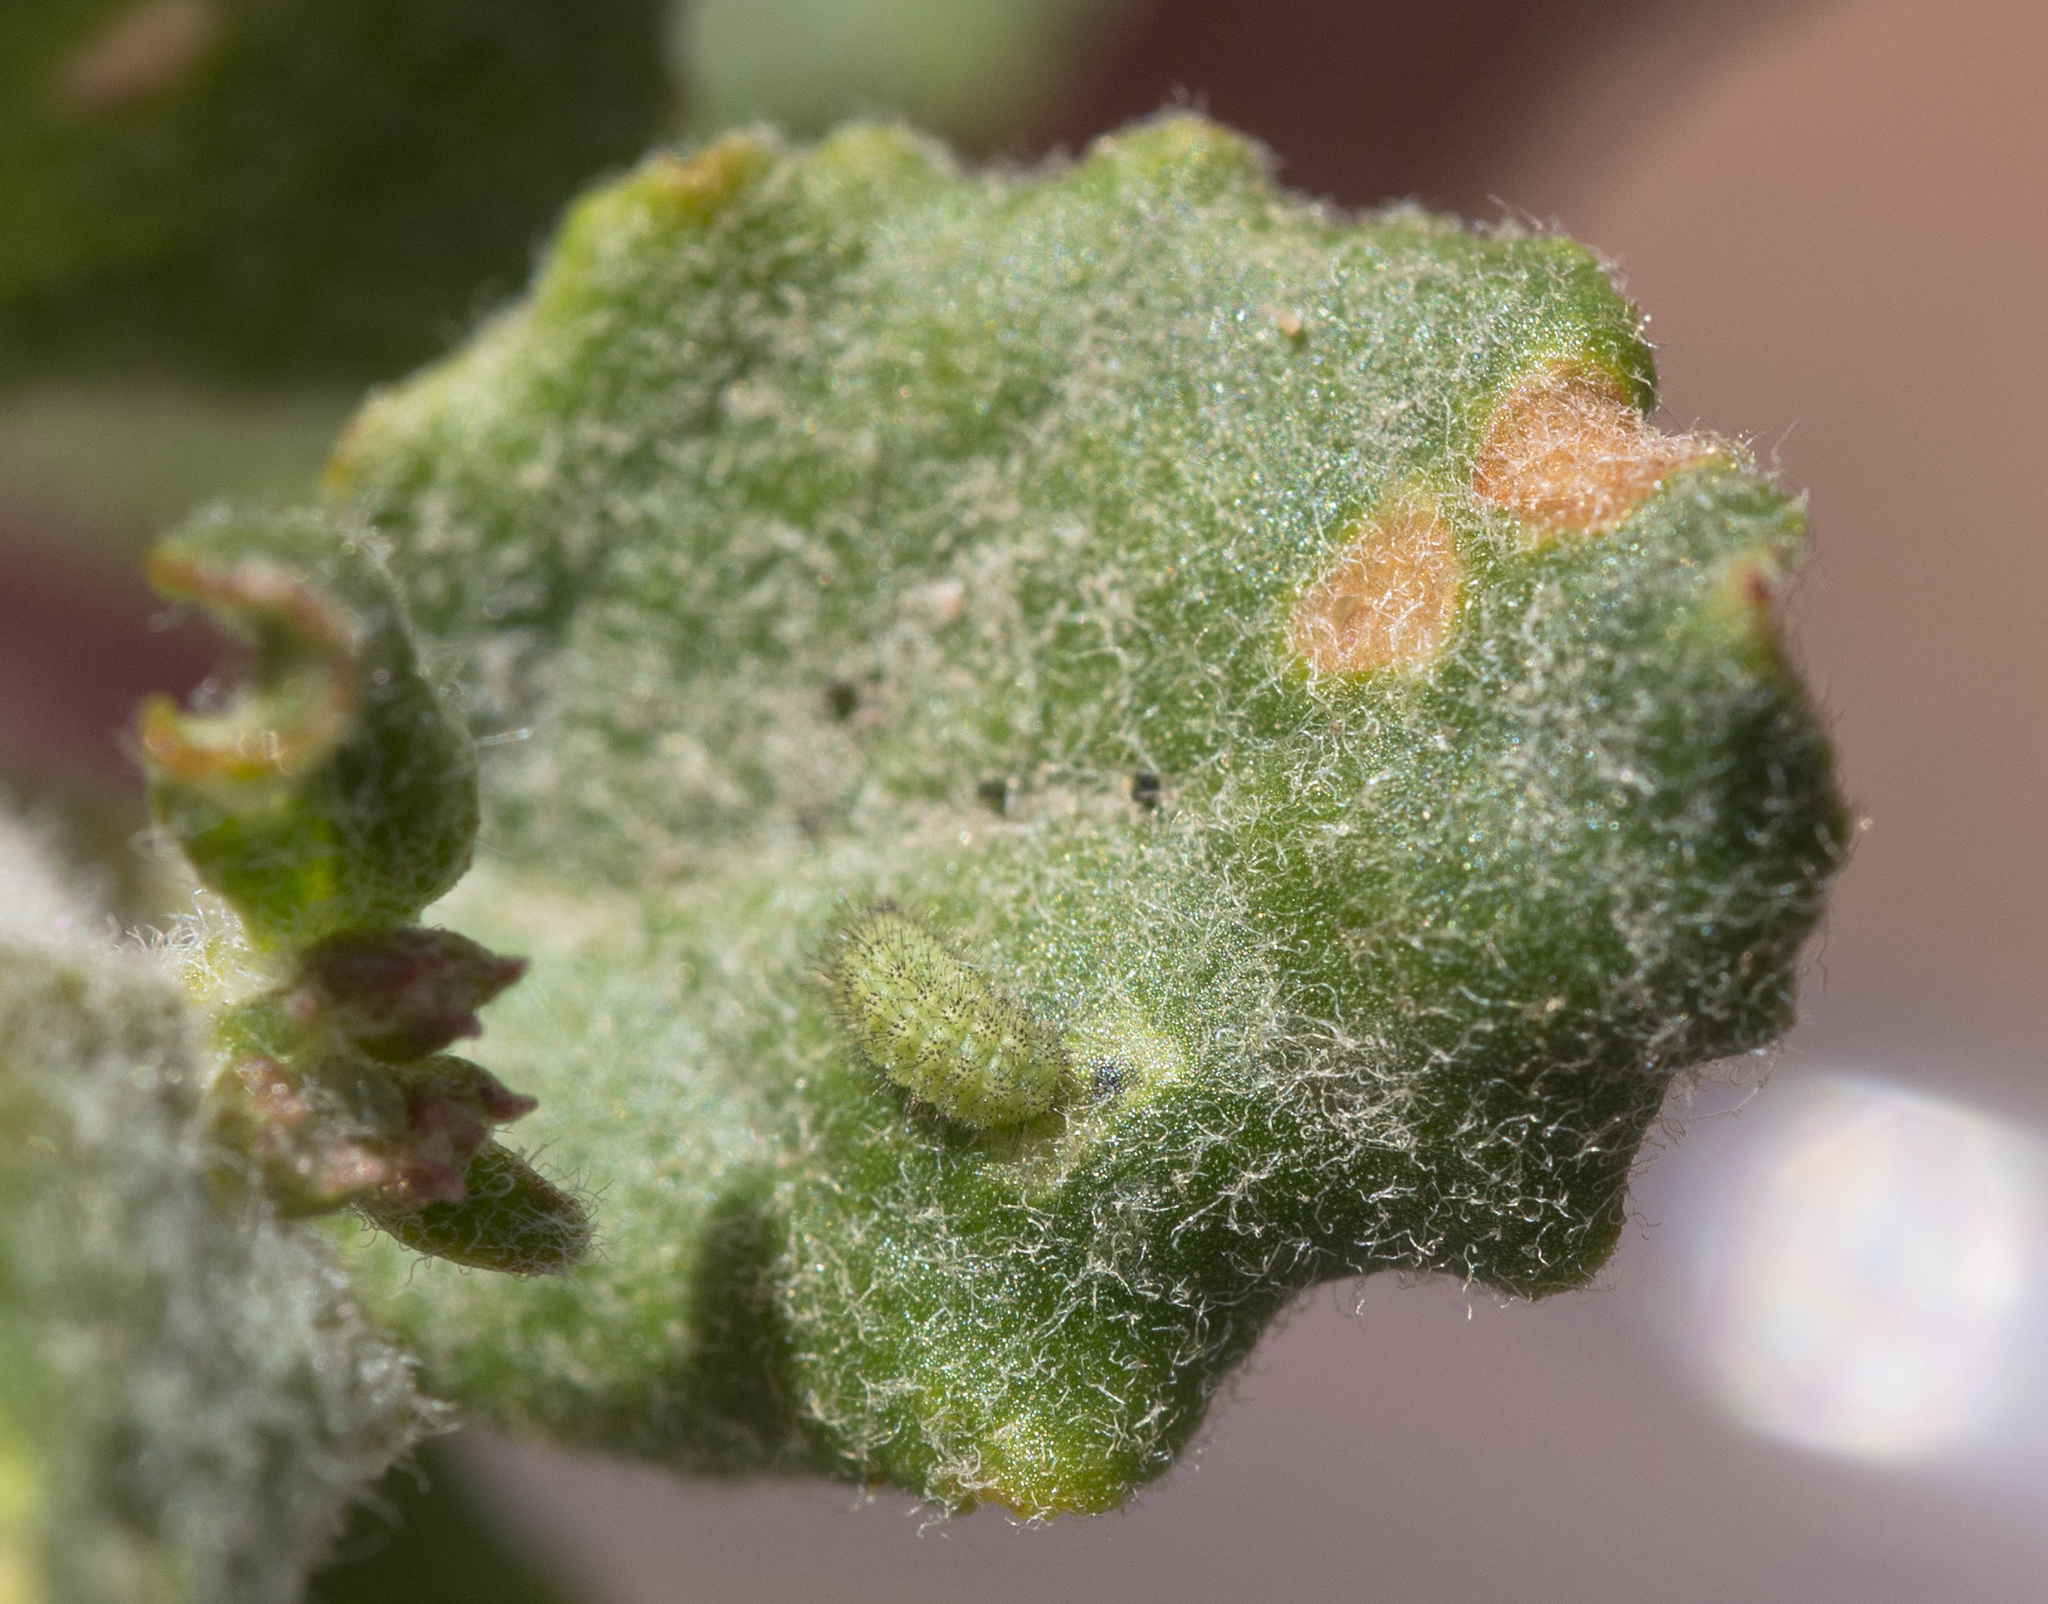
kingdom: Animalia
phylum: Arthropoda
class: Insecta
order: Lepidoptera
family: Lycaenidae
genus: Thecla
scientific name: Thecla sheridanii
